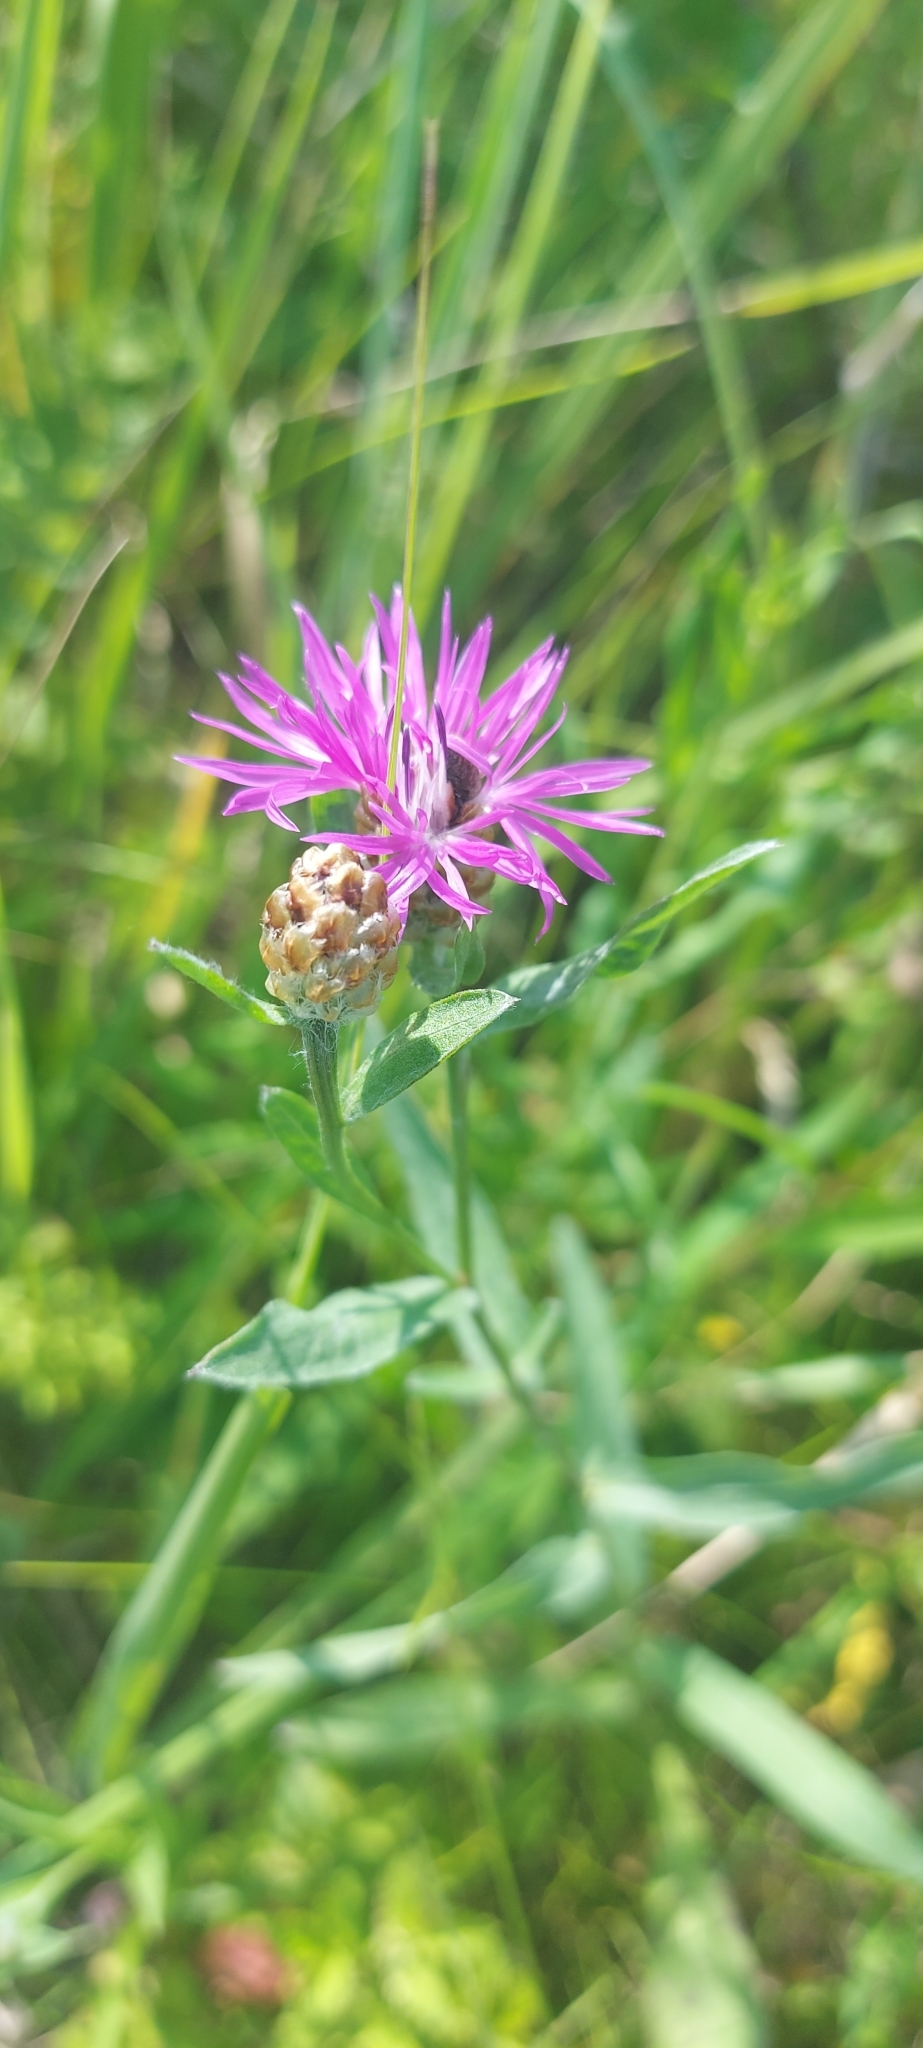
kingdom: Plantae
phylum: Tracheophyta
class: Magnoliopsida
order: Asterales
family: Asteraceae
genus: Centaurea
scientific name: Centaurea jacea
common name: Brown knapweed
